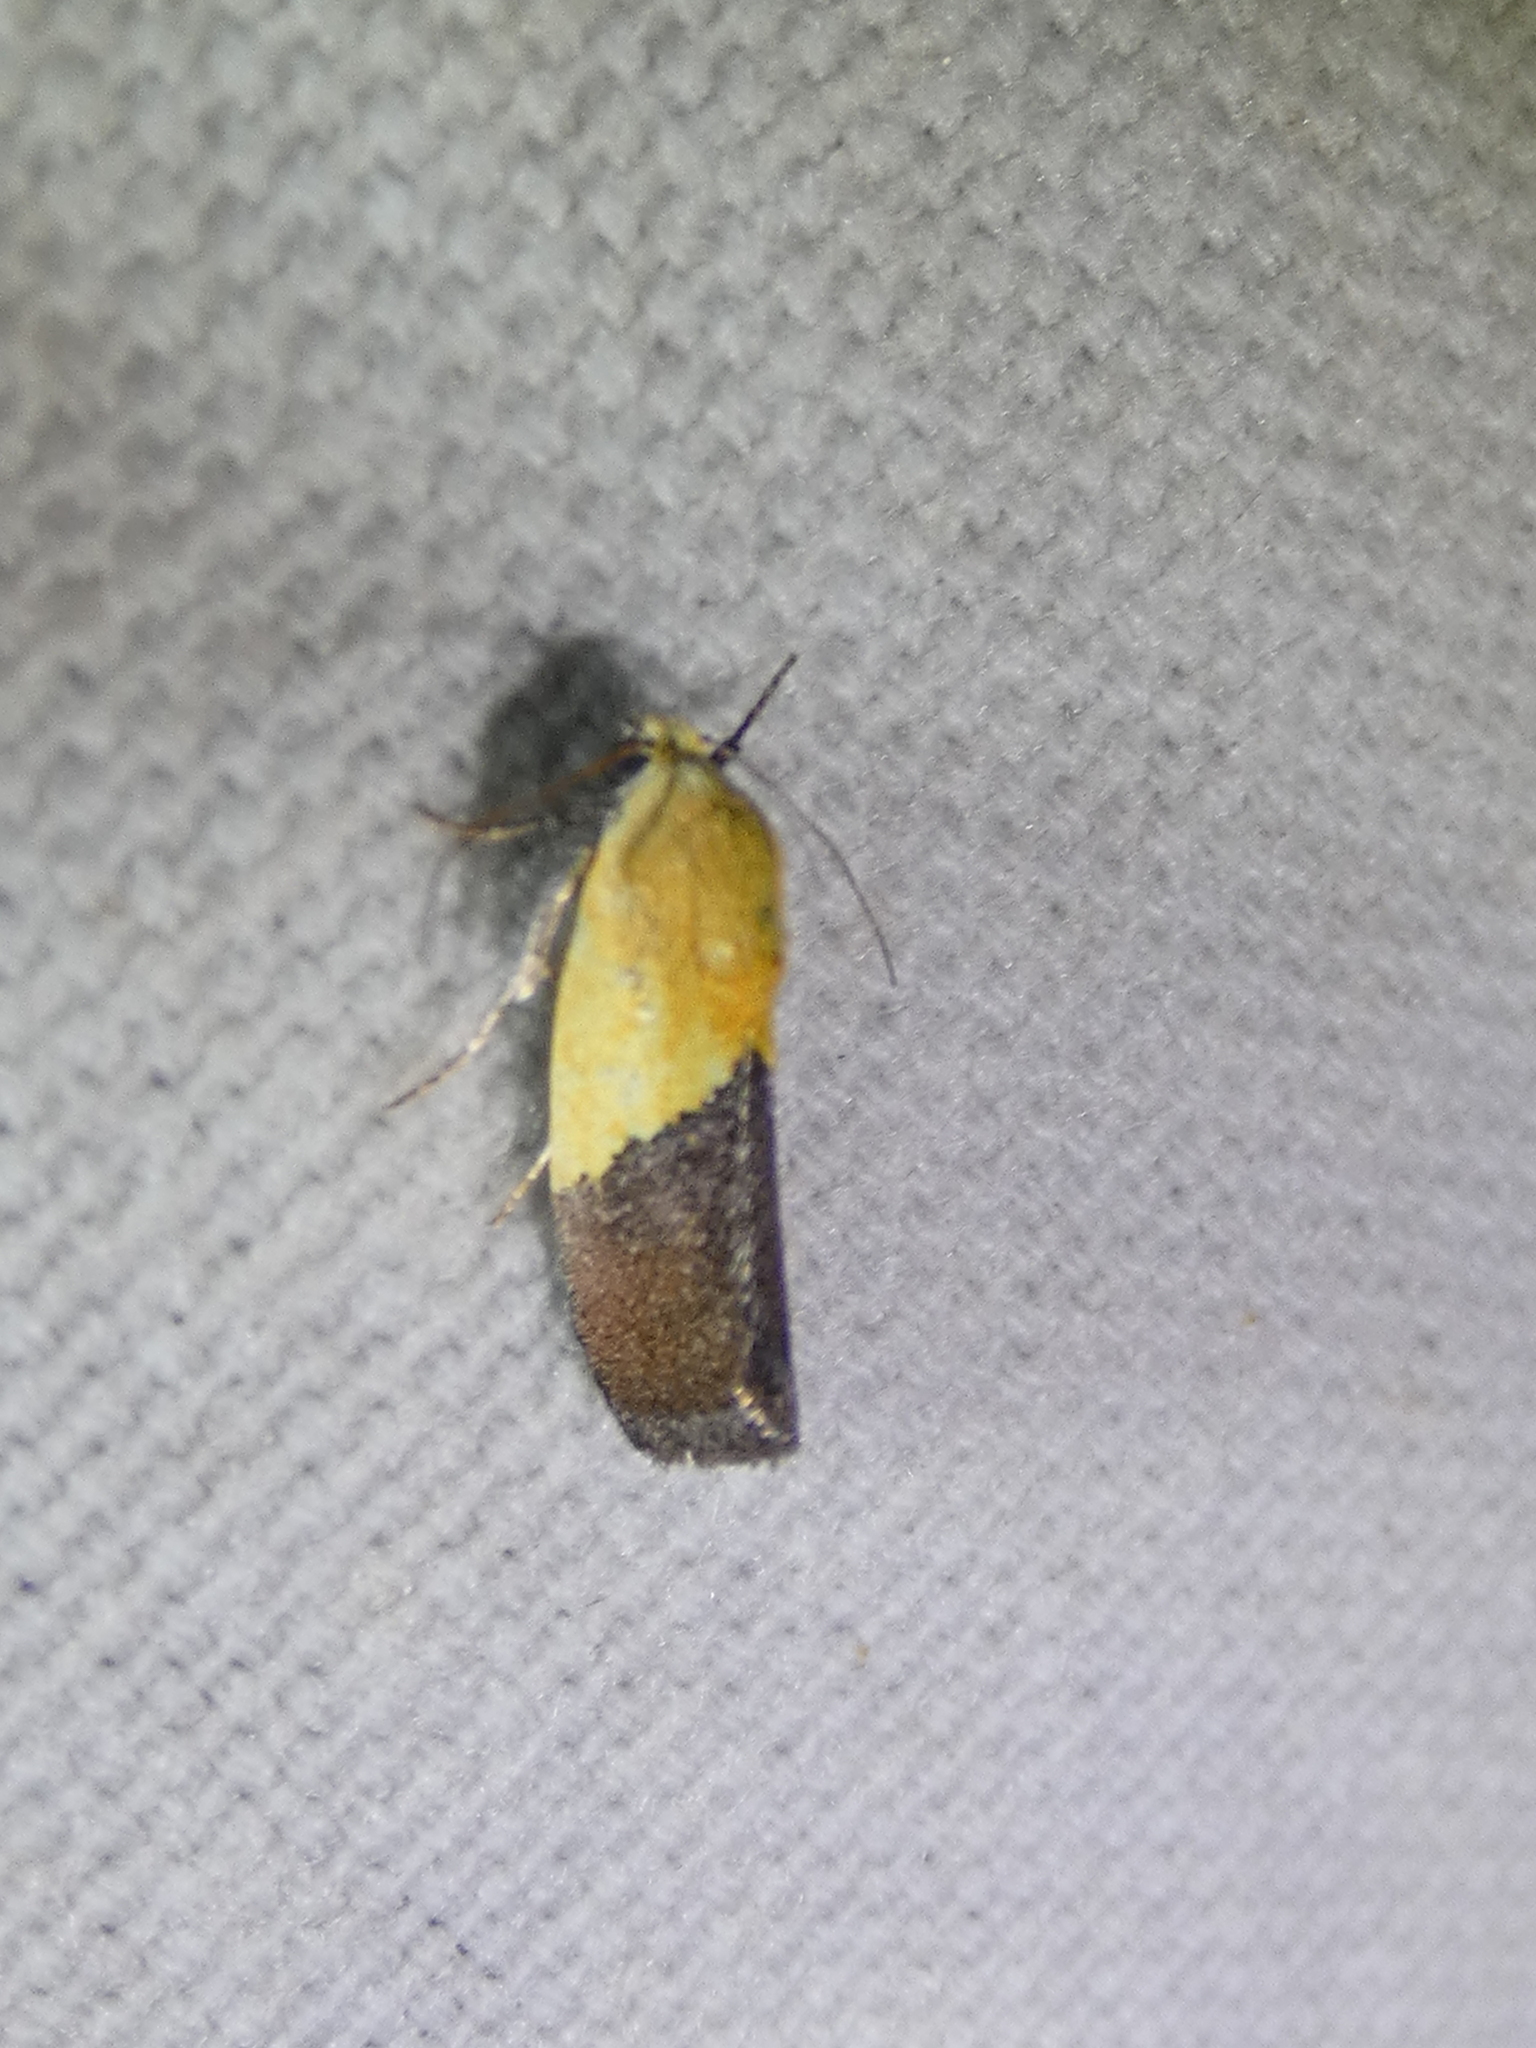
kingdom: Animalia
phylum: Arthropoda
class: Insecta
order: Lepidoptera
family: Noctuidae
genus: Acontia
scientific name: Acontia semiflava
